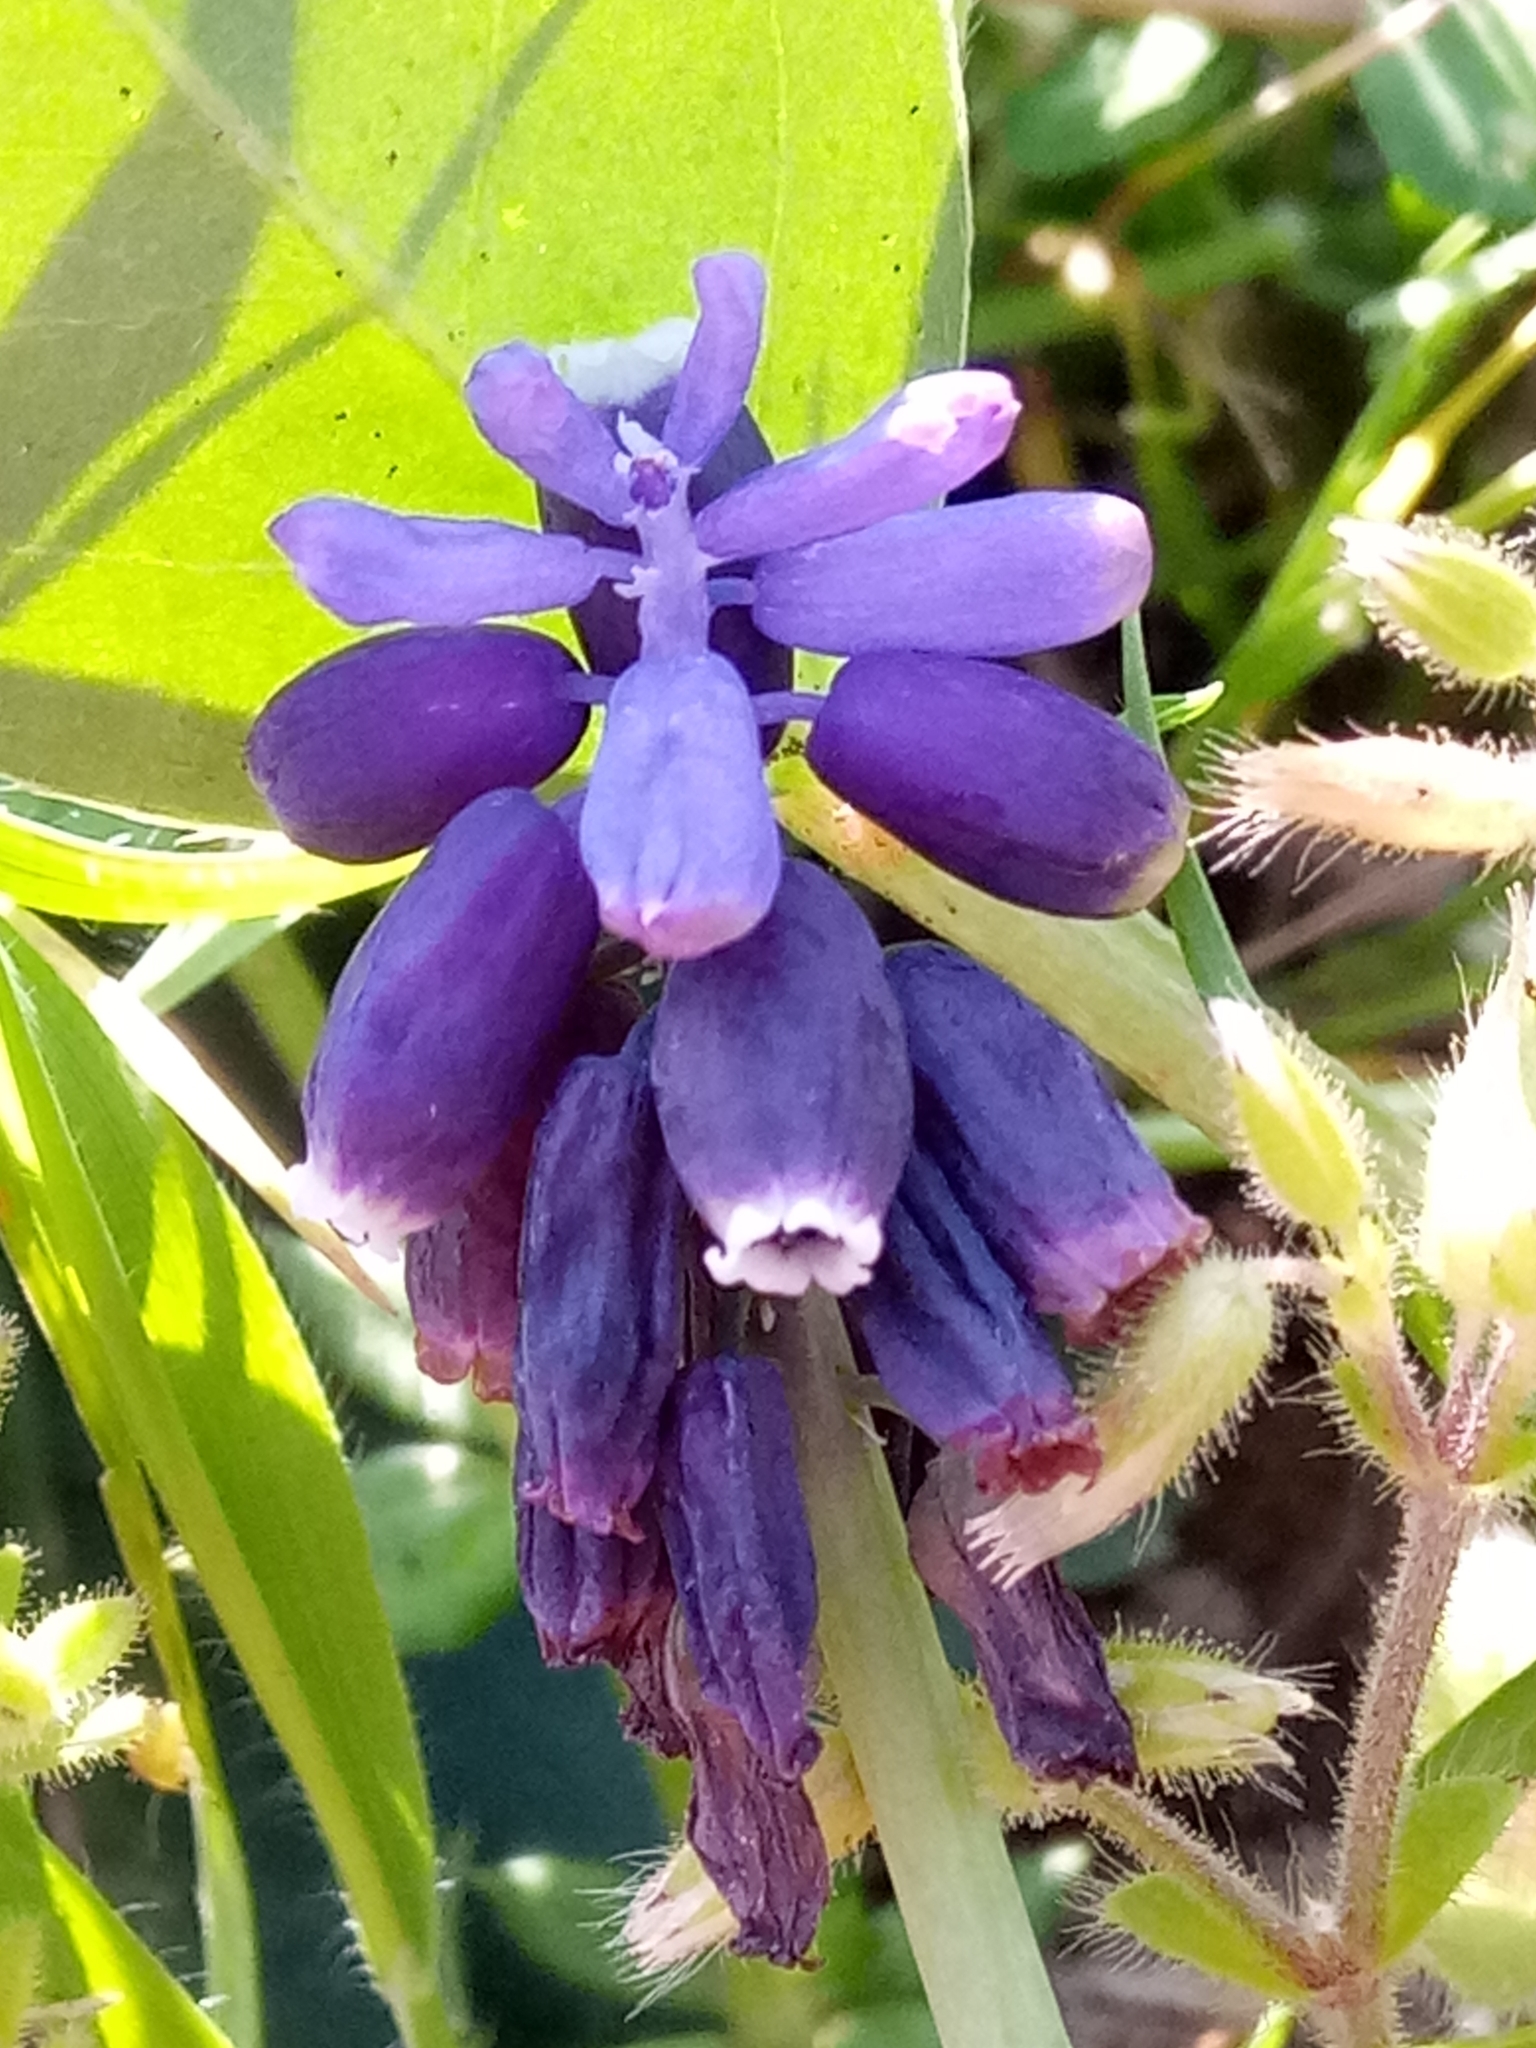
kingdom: Plantae
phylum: Tracheophyta
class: Liliopsida
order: Asparagales
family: Asparagaceae
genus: Muscari
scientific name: Muscari baeticum
